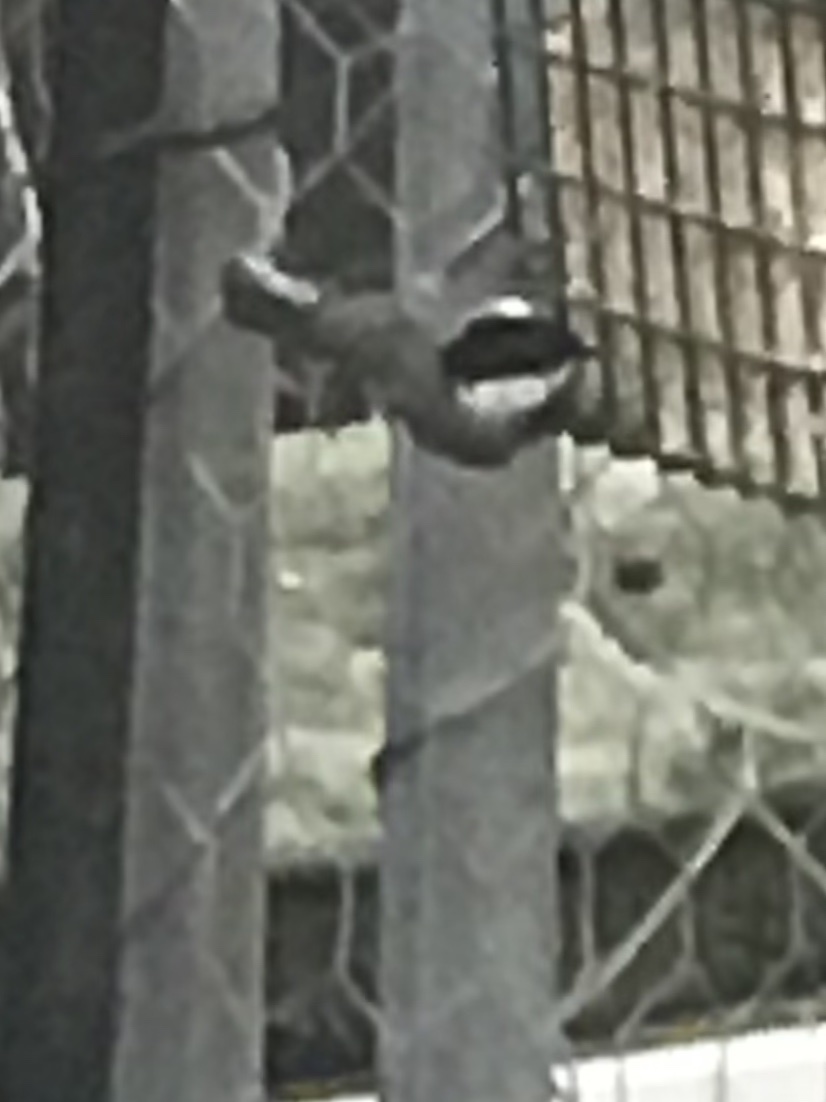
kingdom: Animalia
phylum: Chordata
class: Aves
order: Passeriformes
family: Paridae
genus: Poecile
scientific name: Poecile carolinensis
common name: Carolina chickadee
